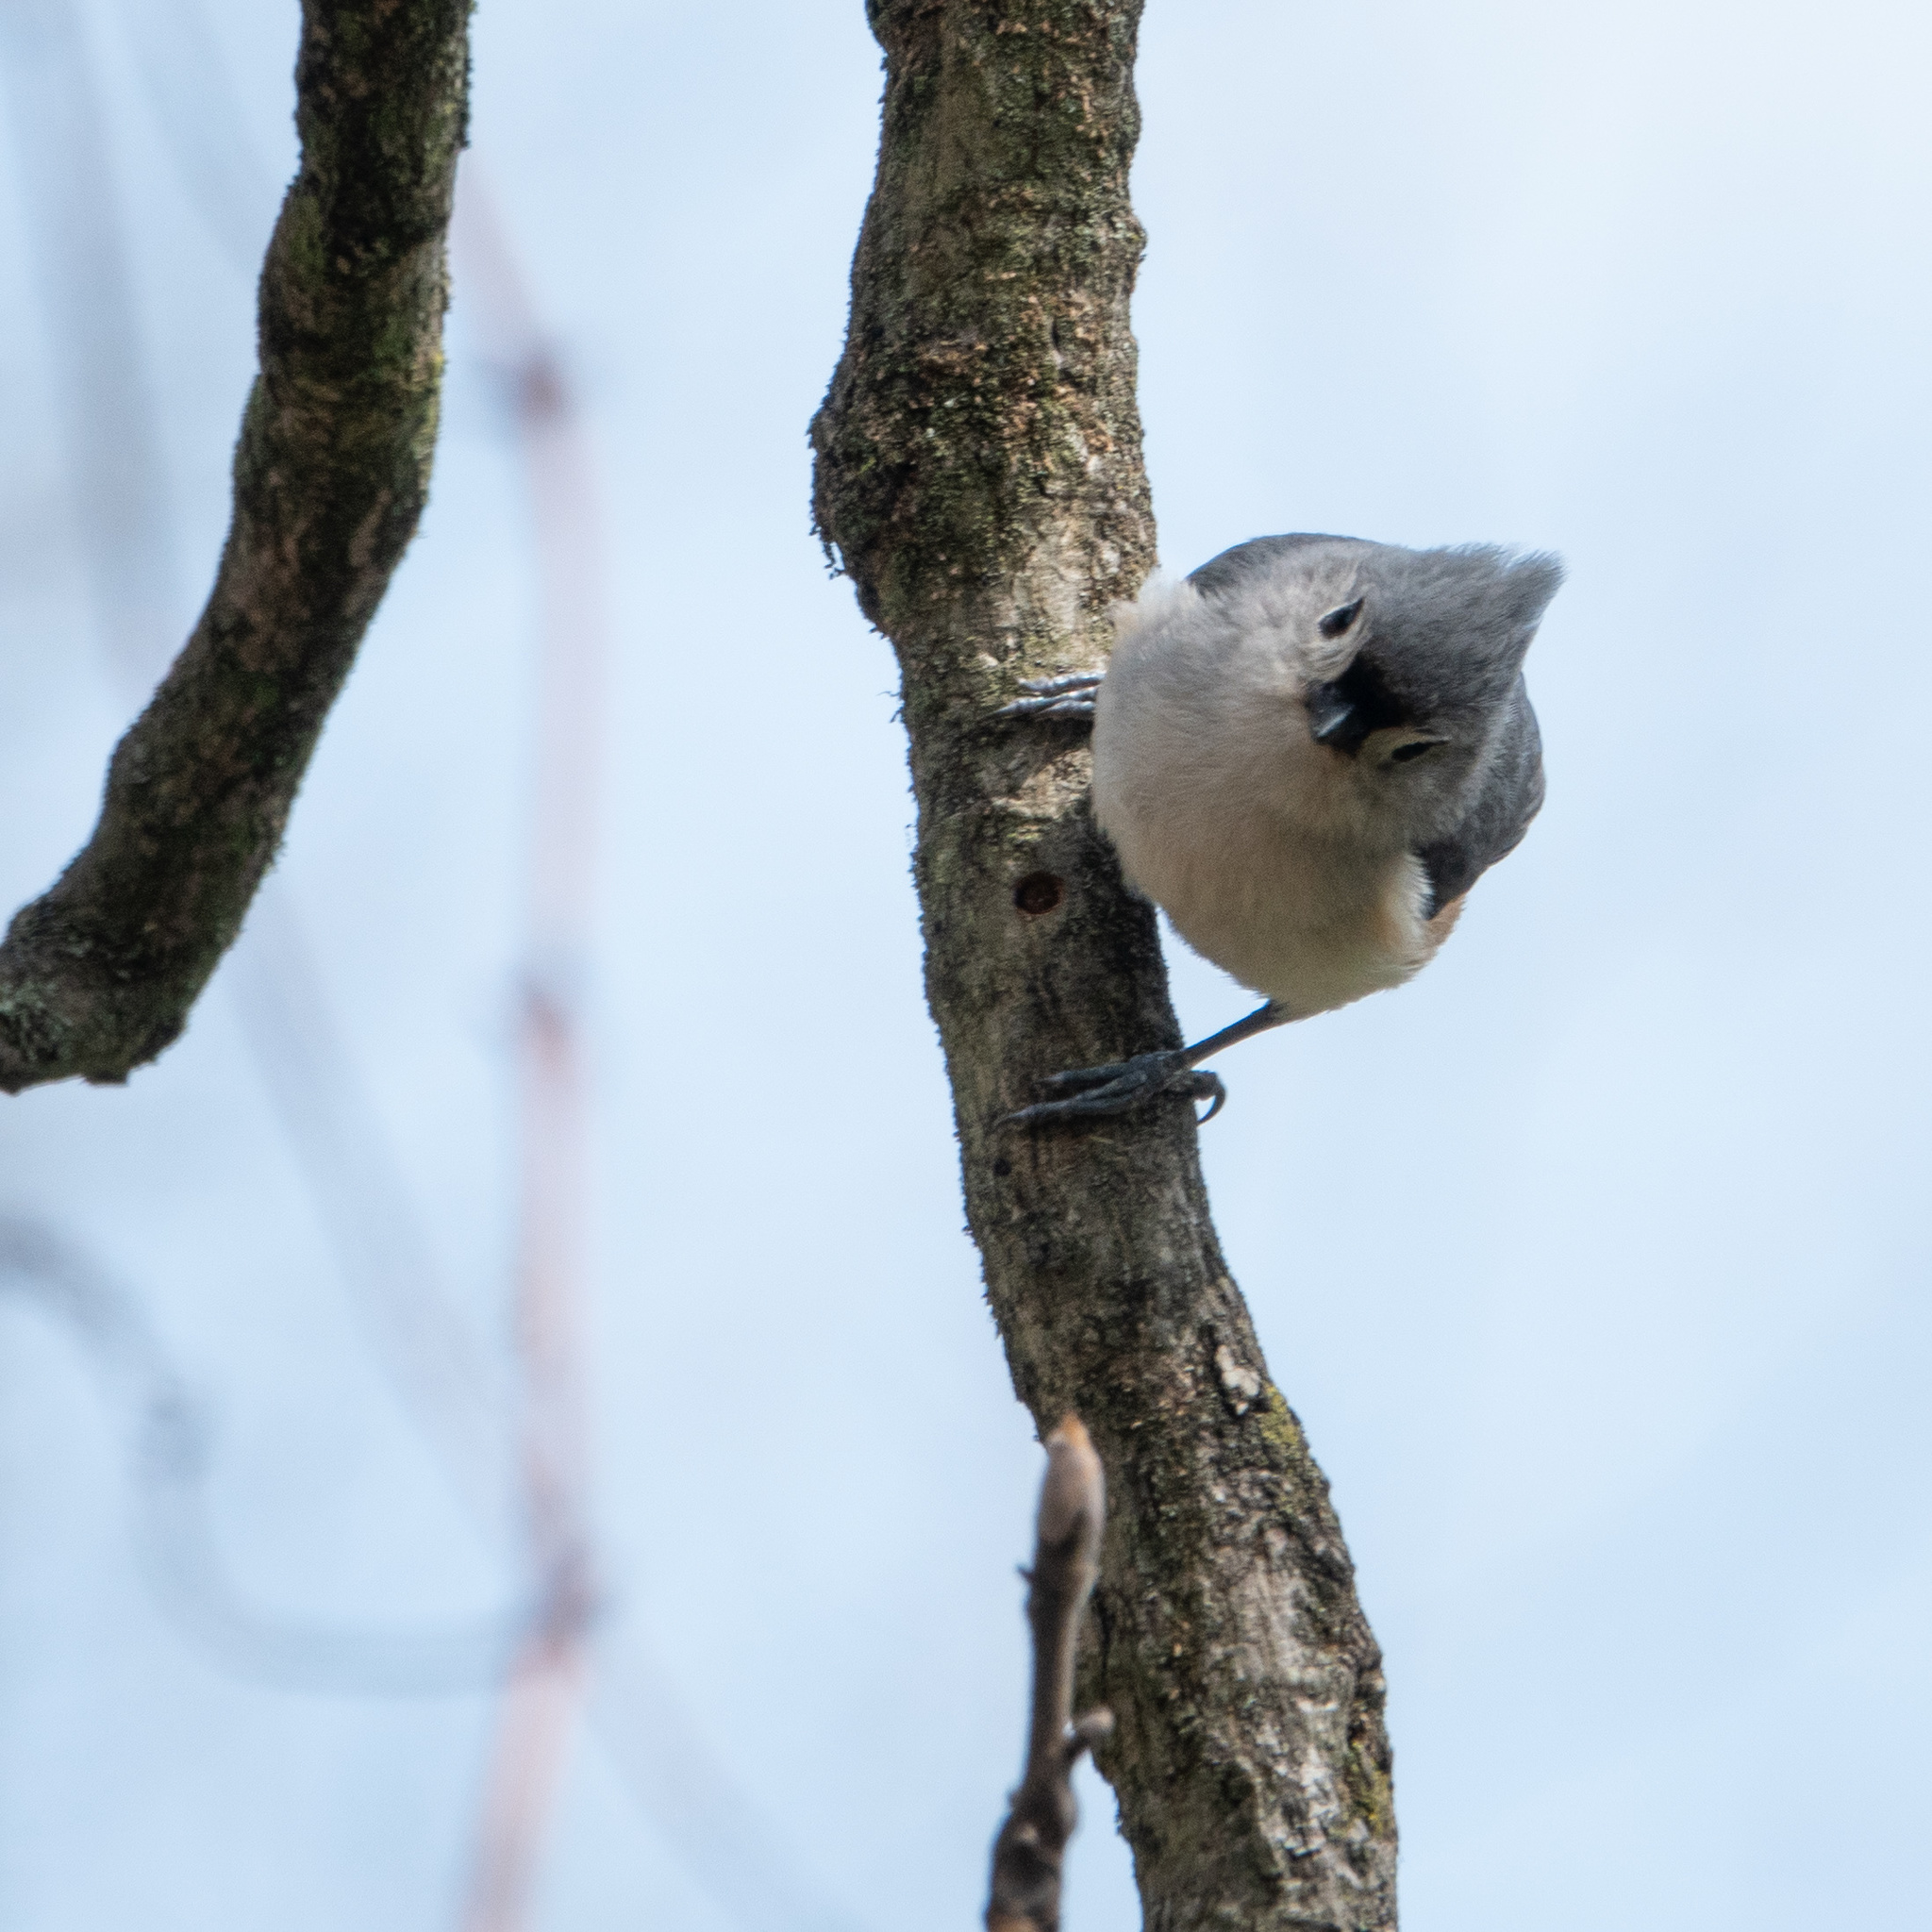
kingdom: Animalia
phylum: Chordata
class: Aves
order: Passeriformes
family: Paridae
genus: Baeolophus
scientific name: Baeolophus bicolor
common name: Tufted titmouse
